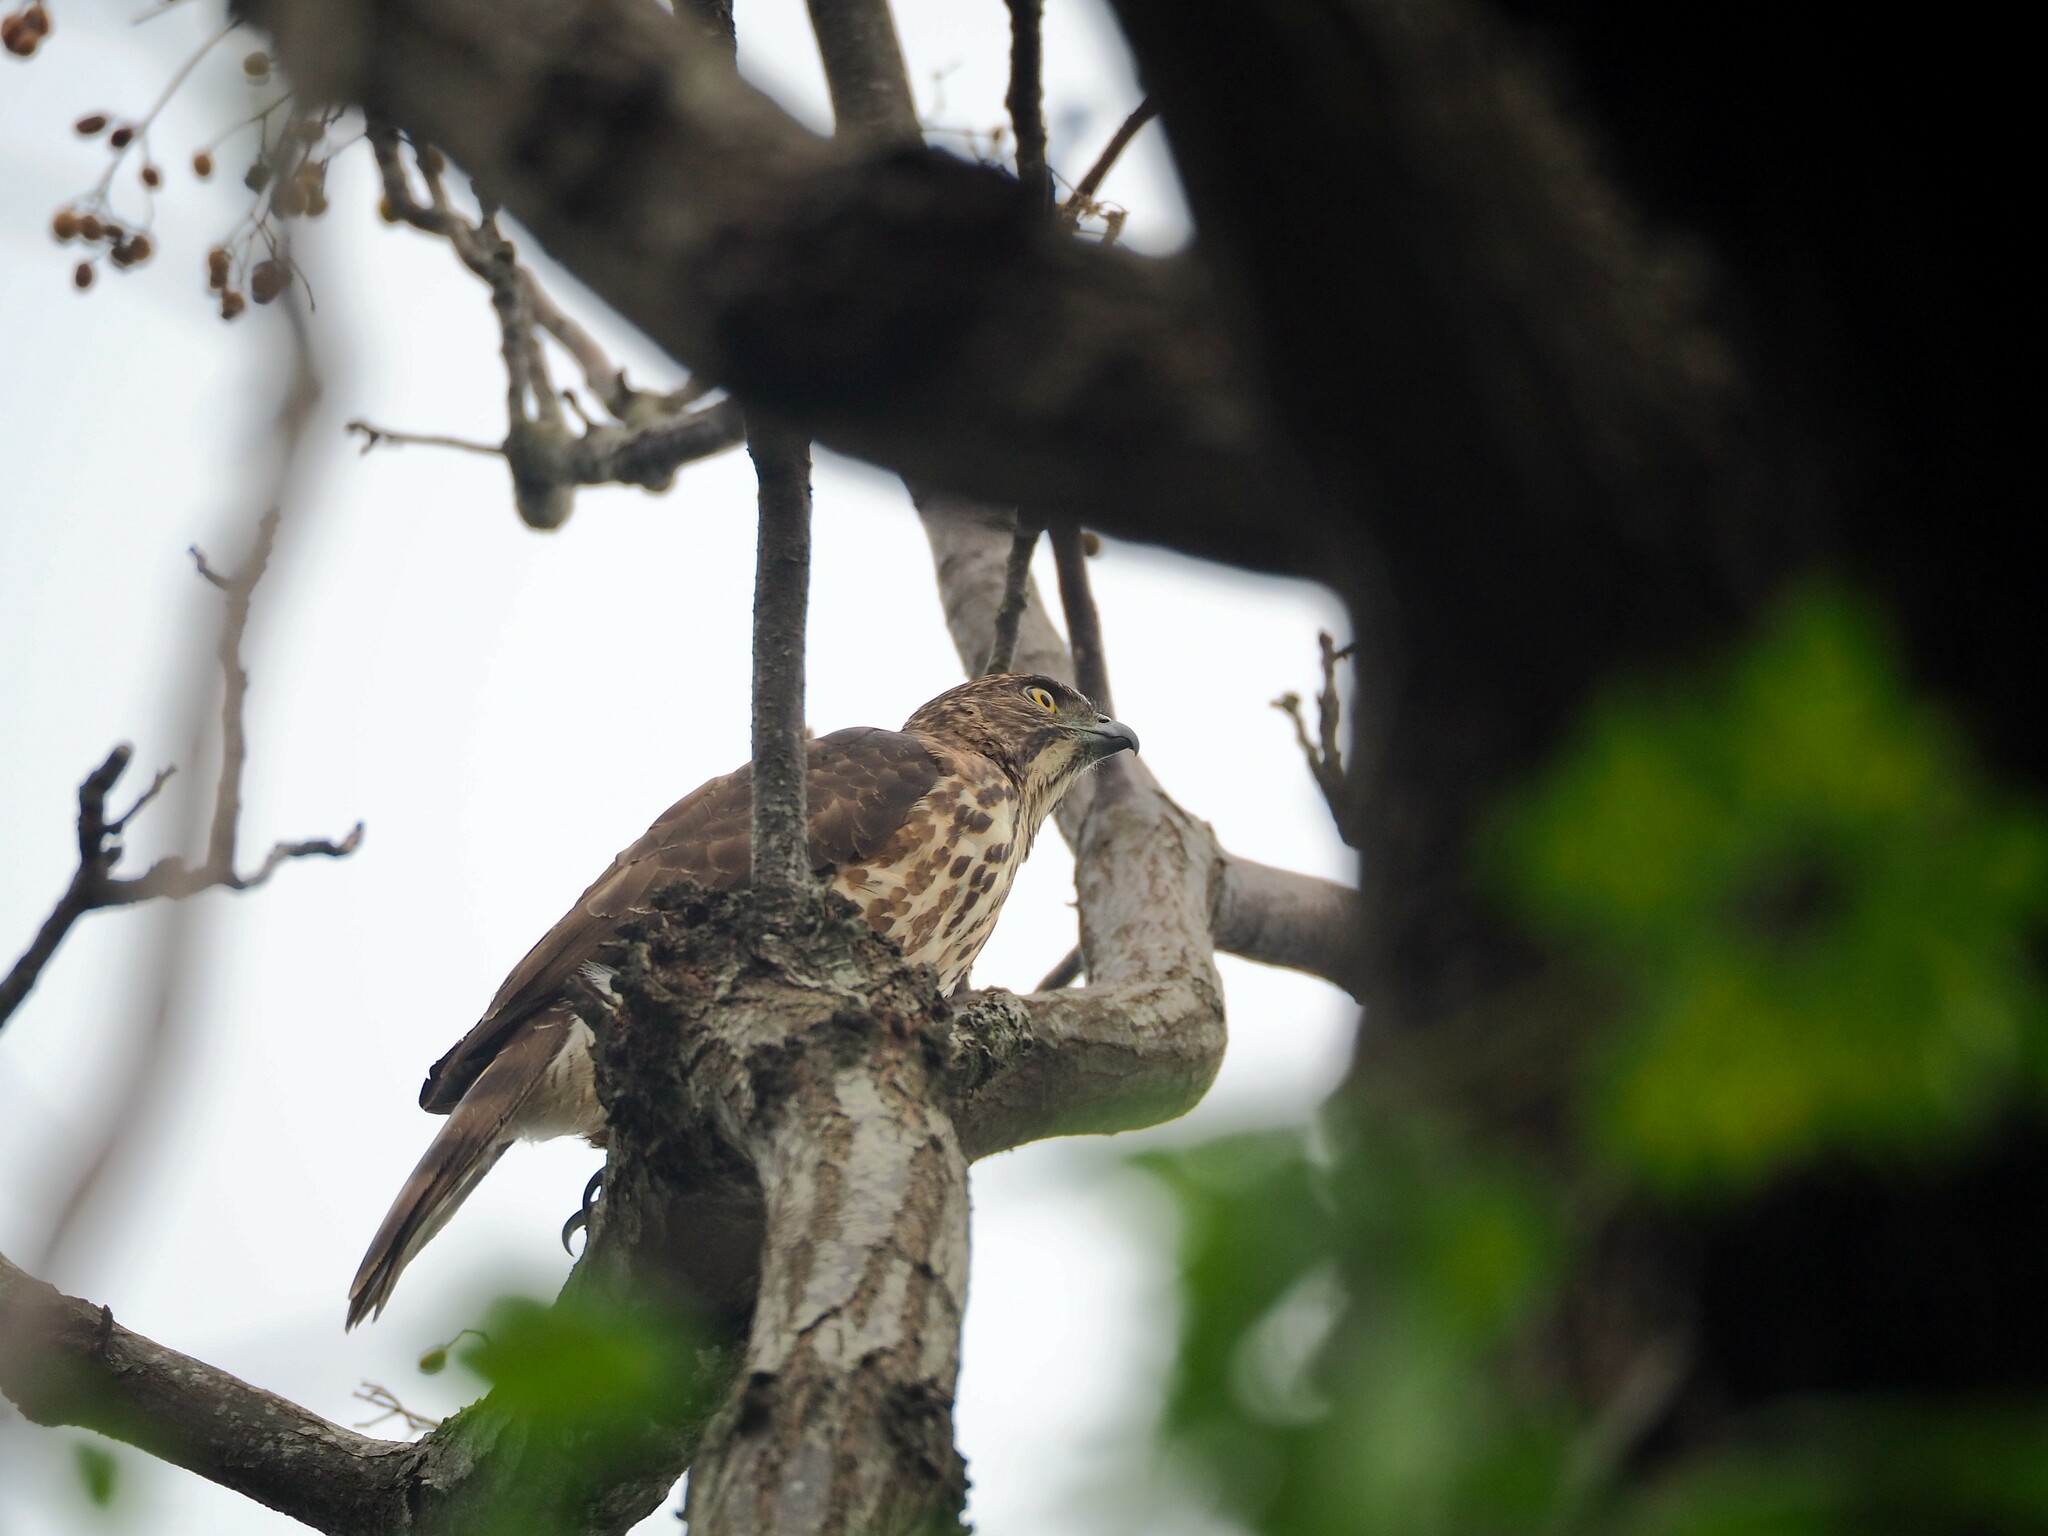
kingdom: Animalia
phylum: Chordata
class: Aves
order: Accipitriformes
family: Accipitridae
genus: Accipiter
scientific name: Accipiter trivirgatus
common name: Crested goshawk
